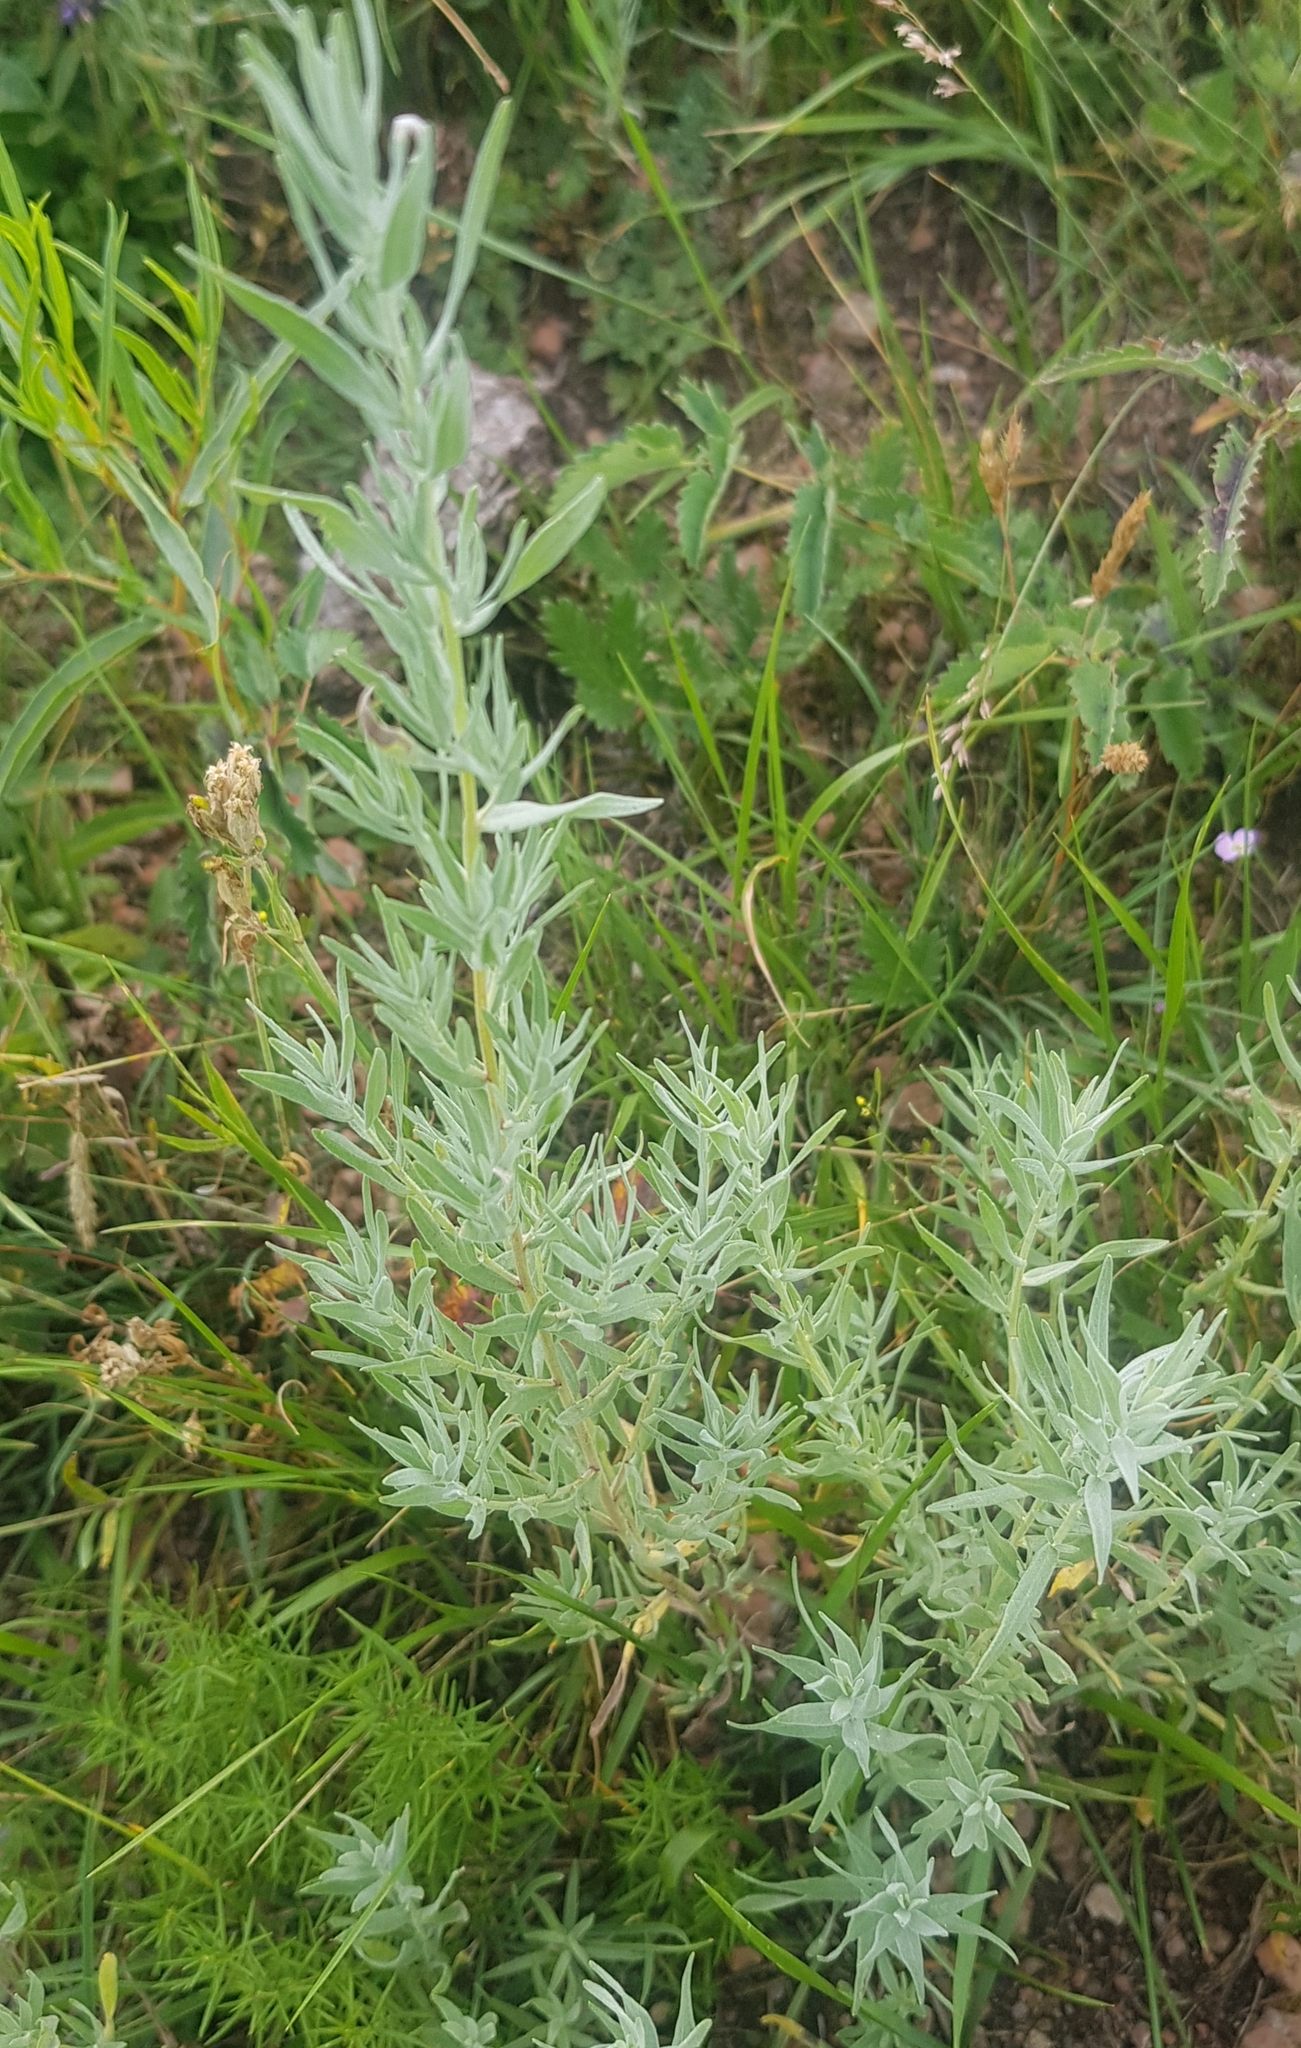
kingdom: Plantae
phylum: Tracheophyta
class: Magnoliopsida
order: Asterales
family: Asteraceae
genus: Artemisia
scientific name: Artemisia glauca
